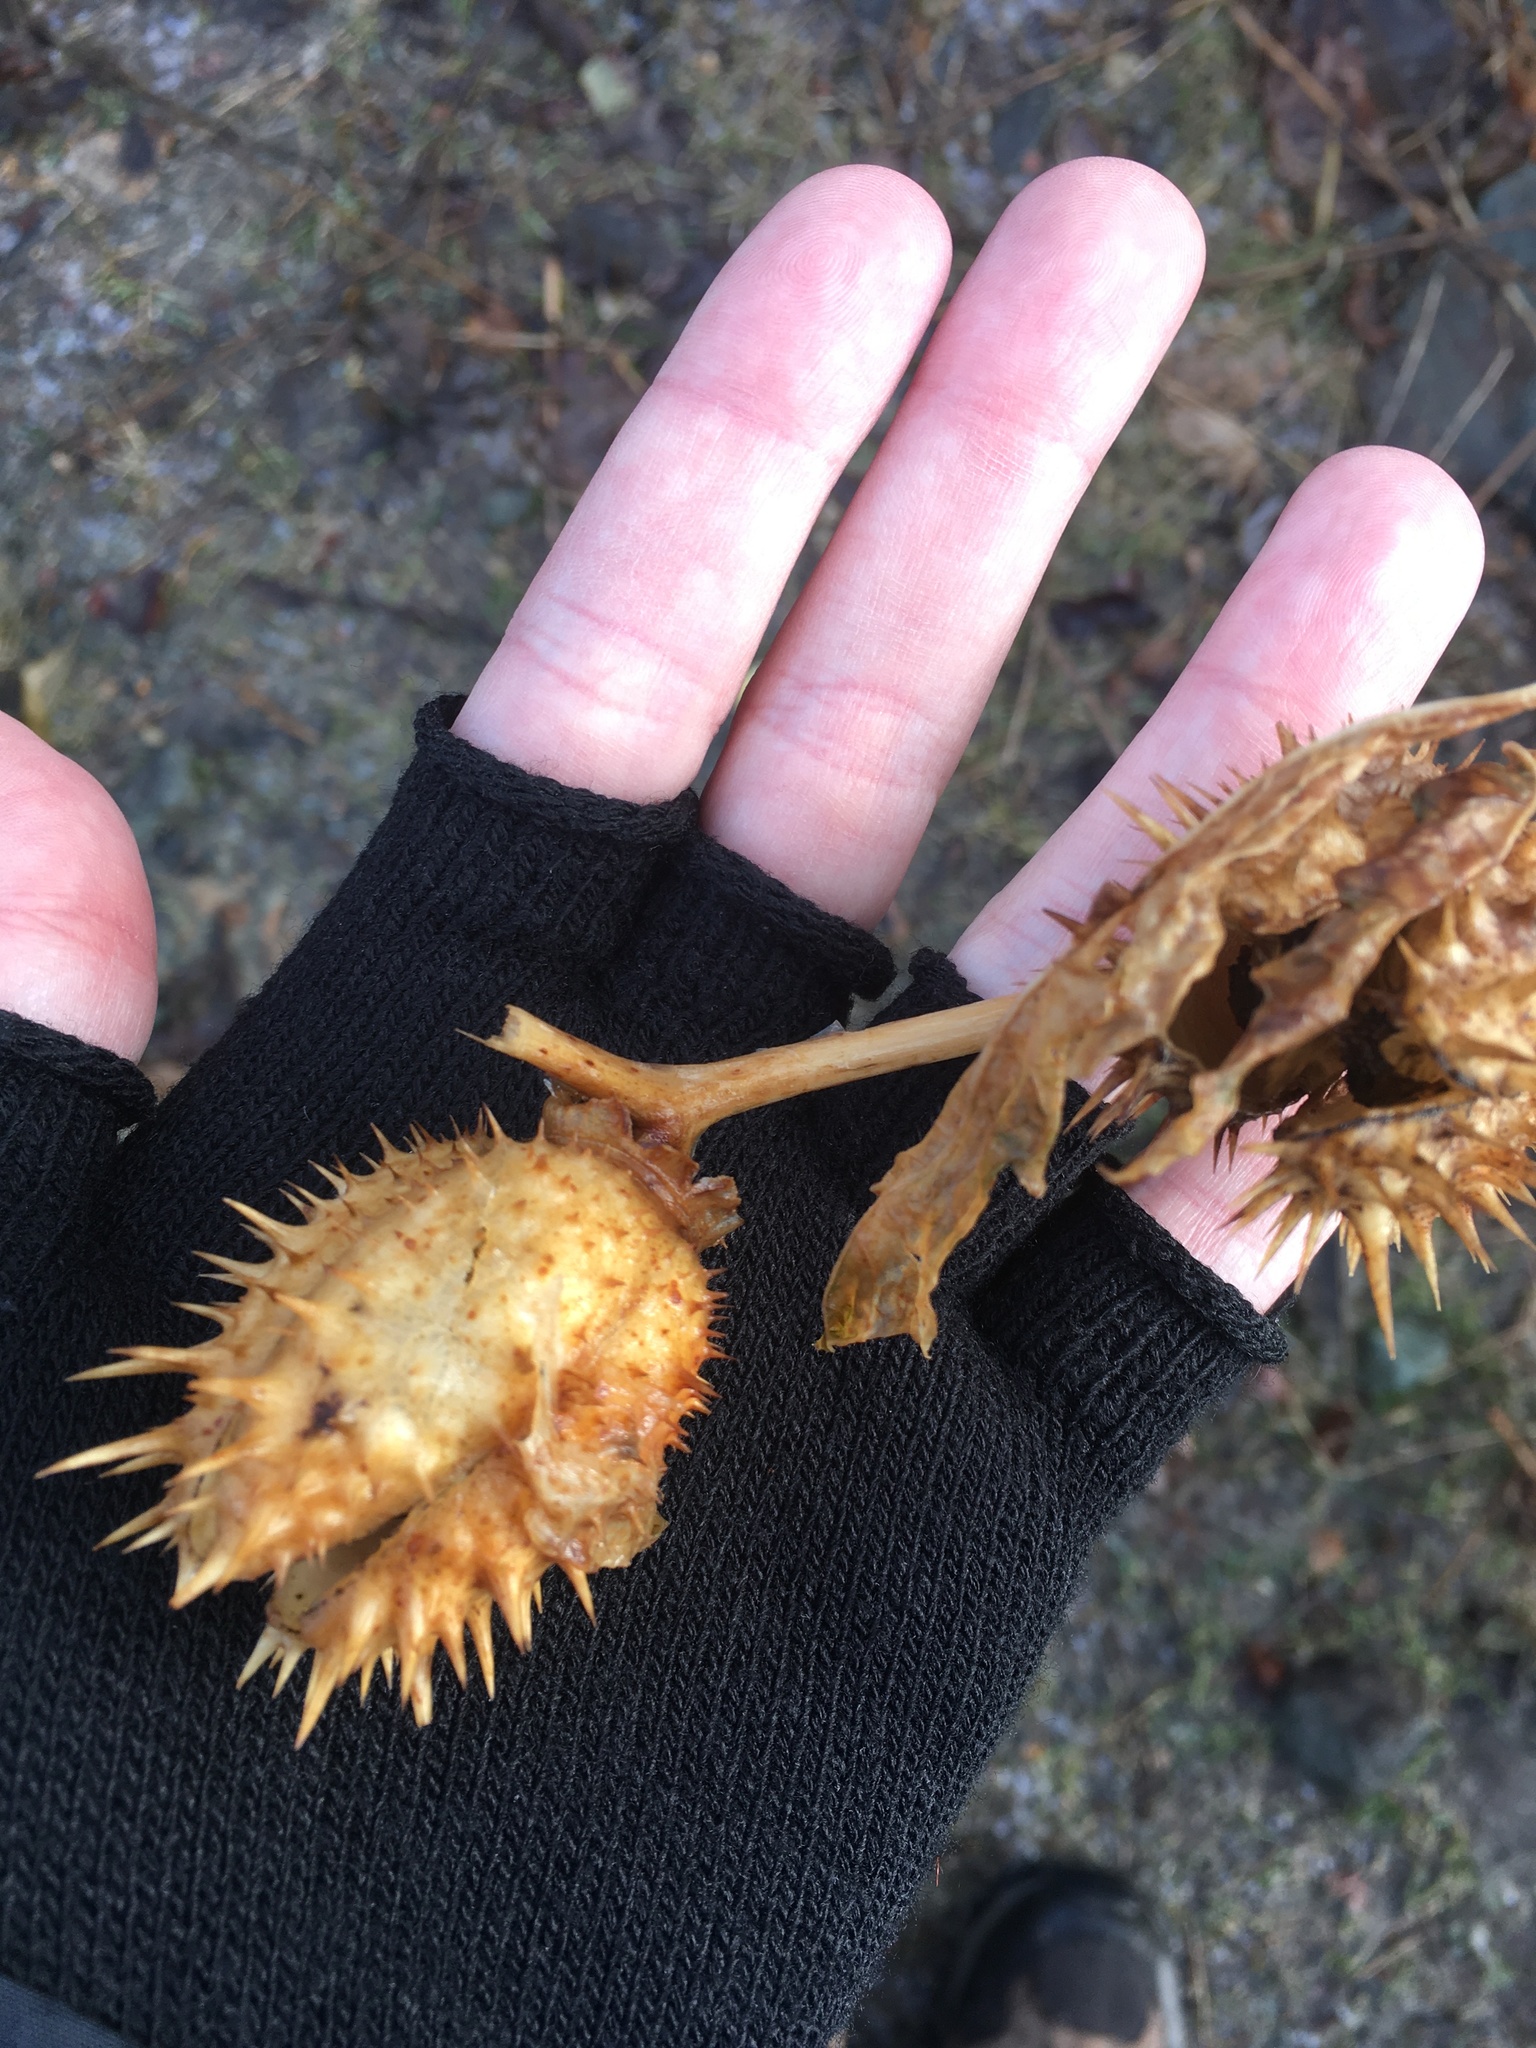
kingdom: Plantae
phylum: Tracheophyta
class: Magnoliopsida
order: Solanales
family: Solanaceae
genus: Datura
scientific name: Datura stramonium
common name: Thorn-apple
